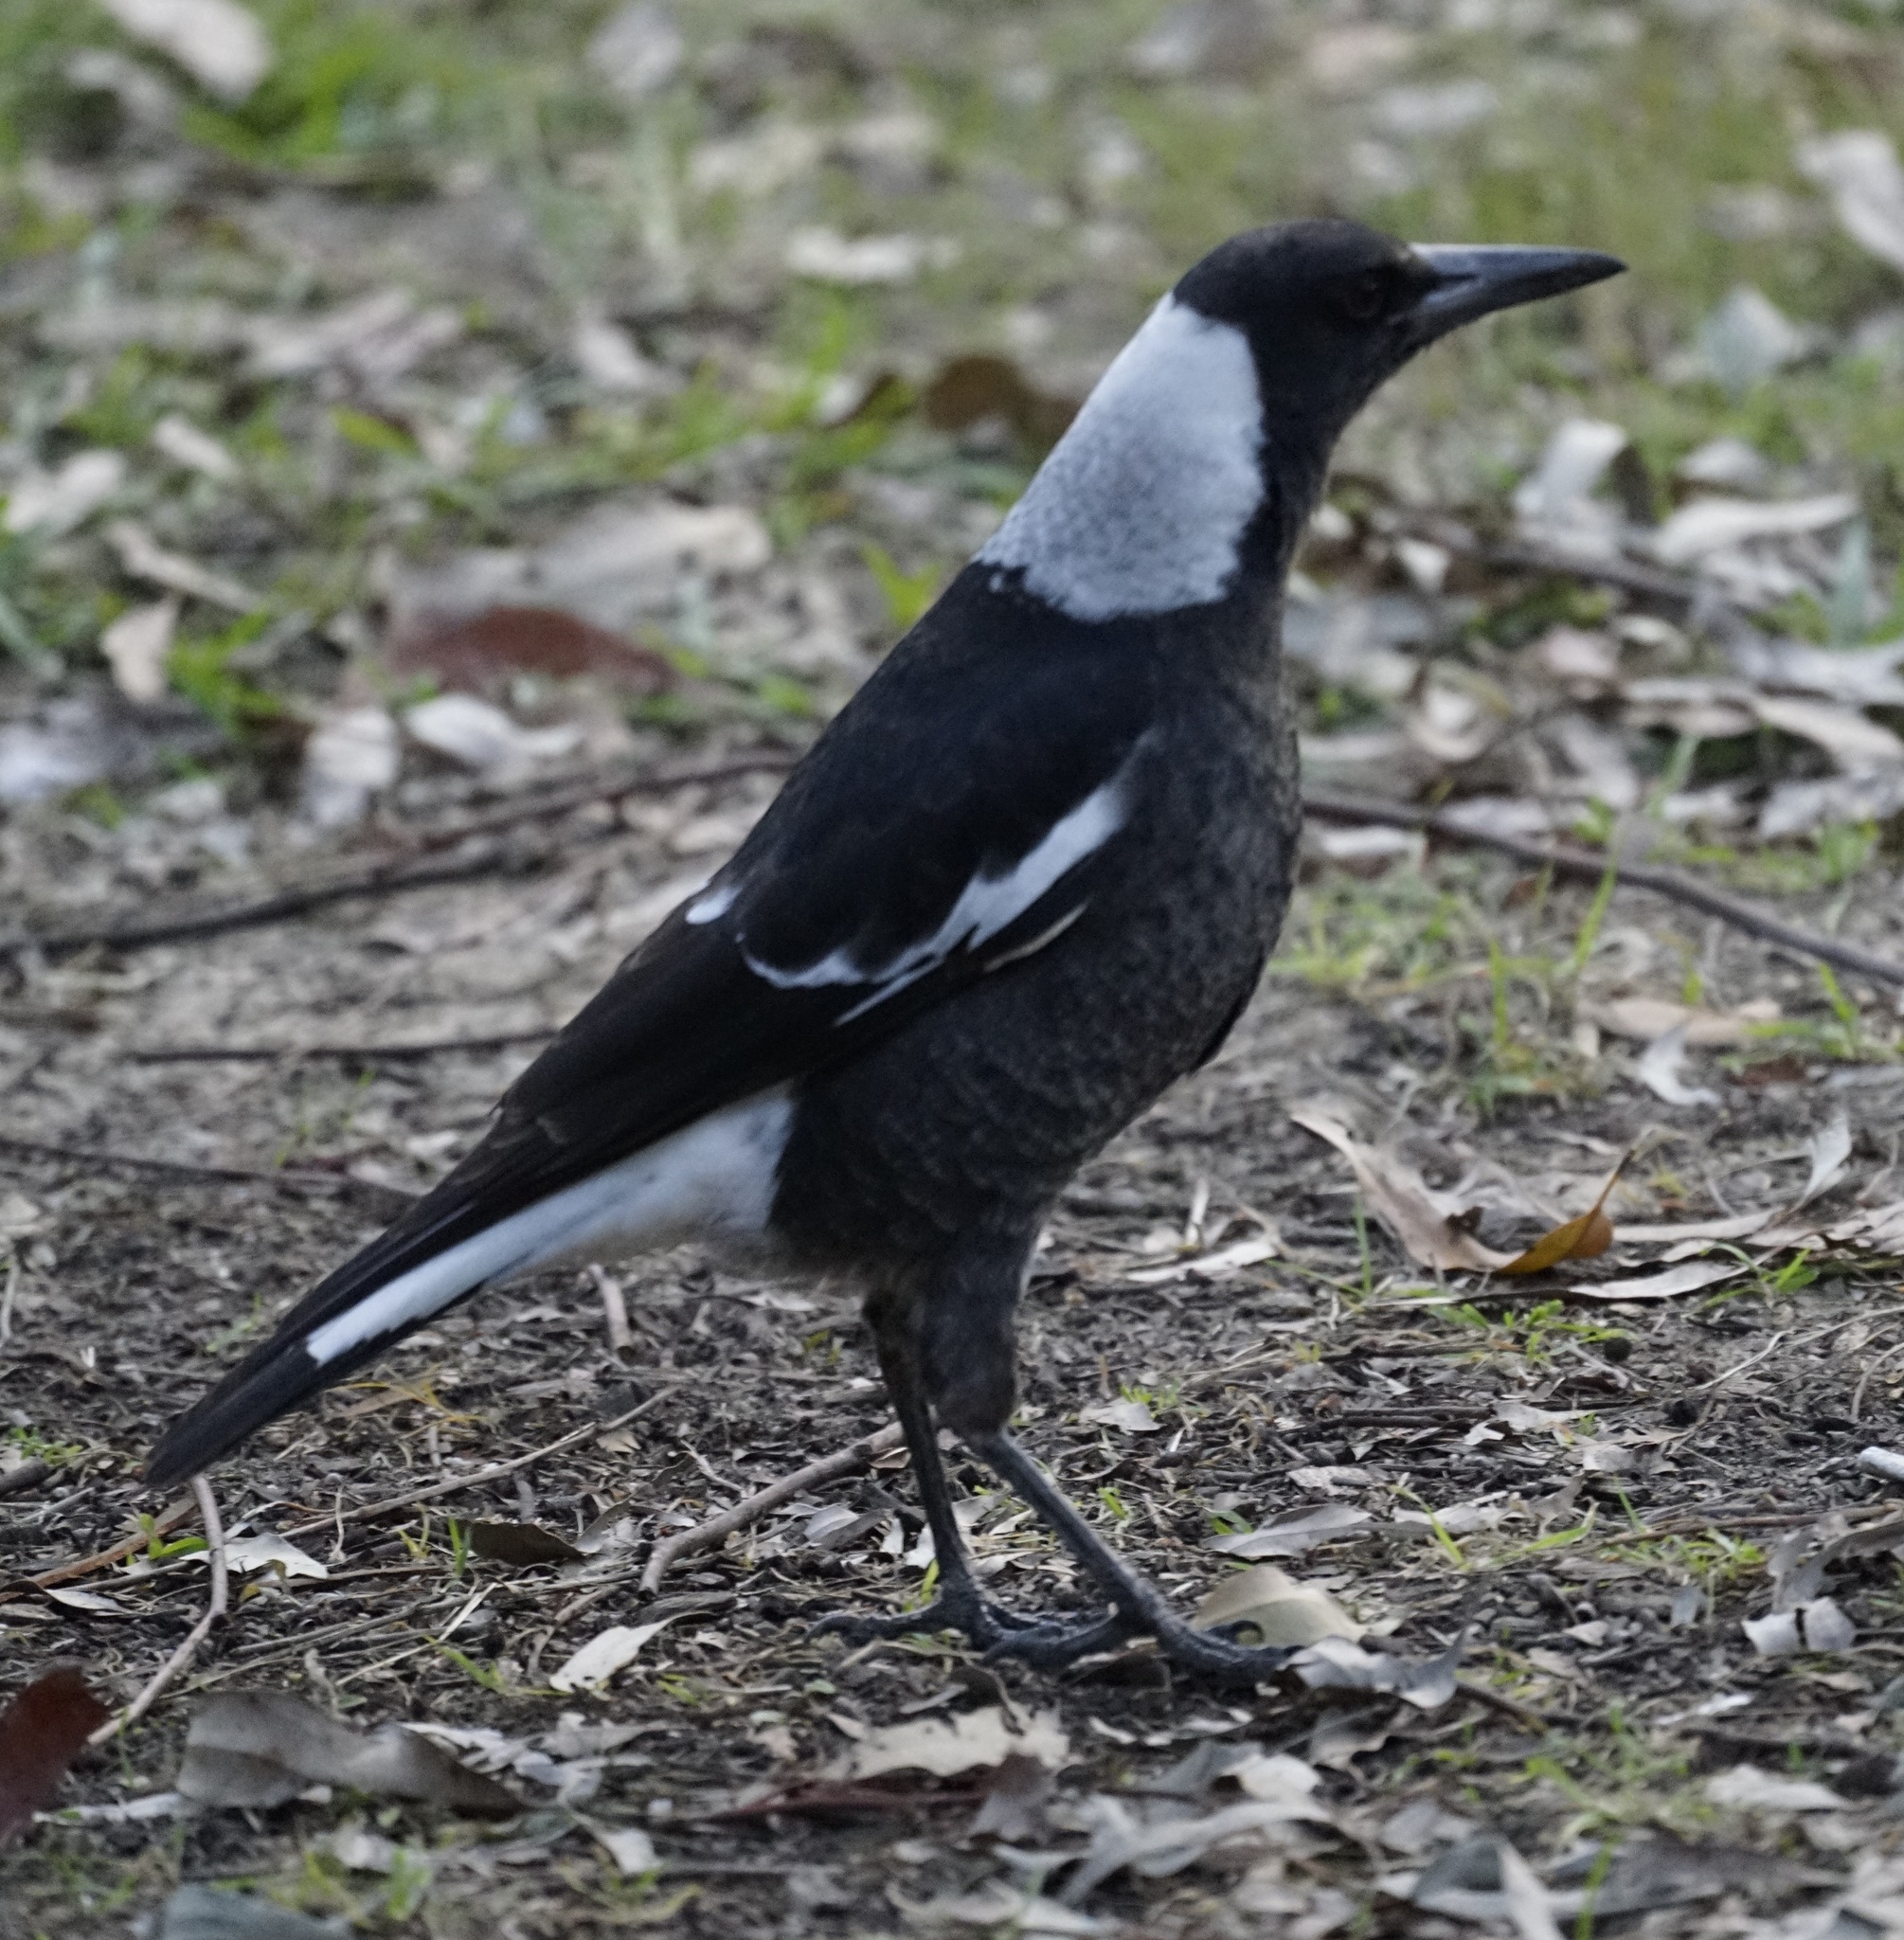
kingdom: Animalia
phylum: Chordata
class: Aves
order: Passeriformes
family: Cracticidae
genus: Gymnorhina
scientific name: Gymnorhina tibicen
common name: Australian magpie
